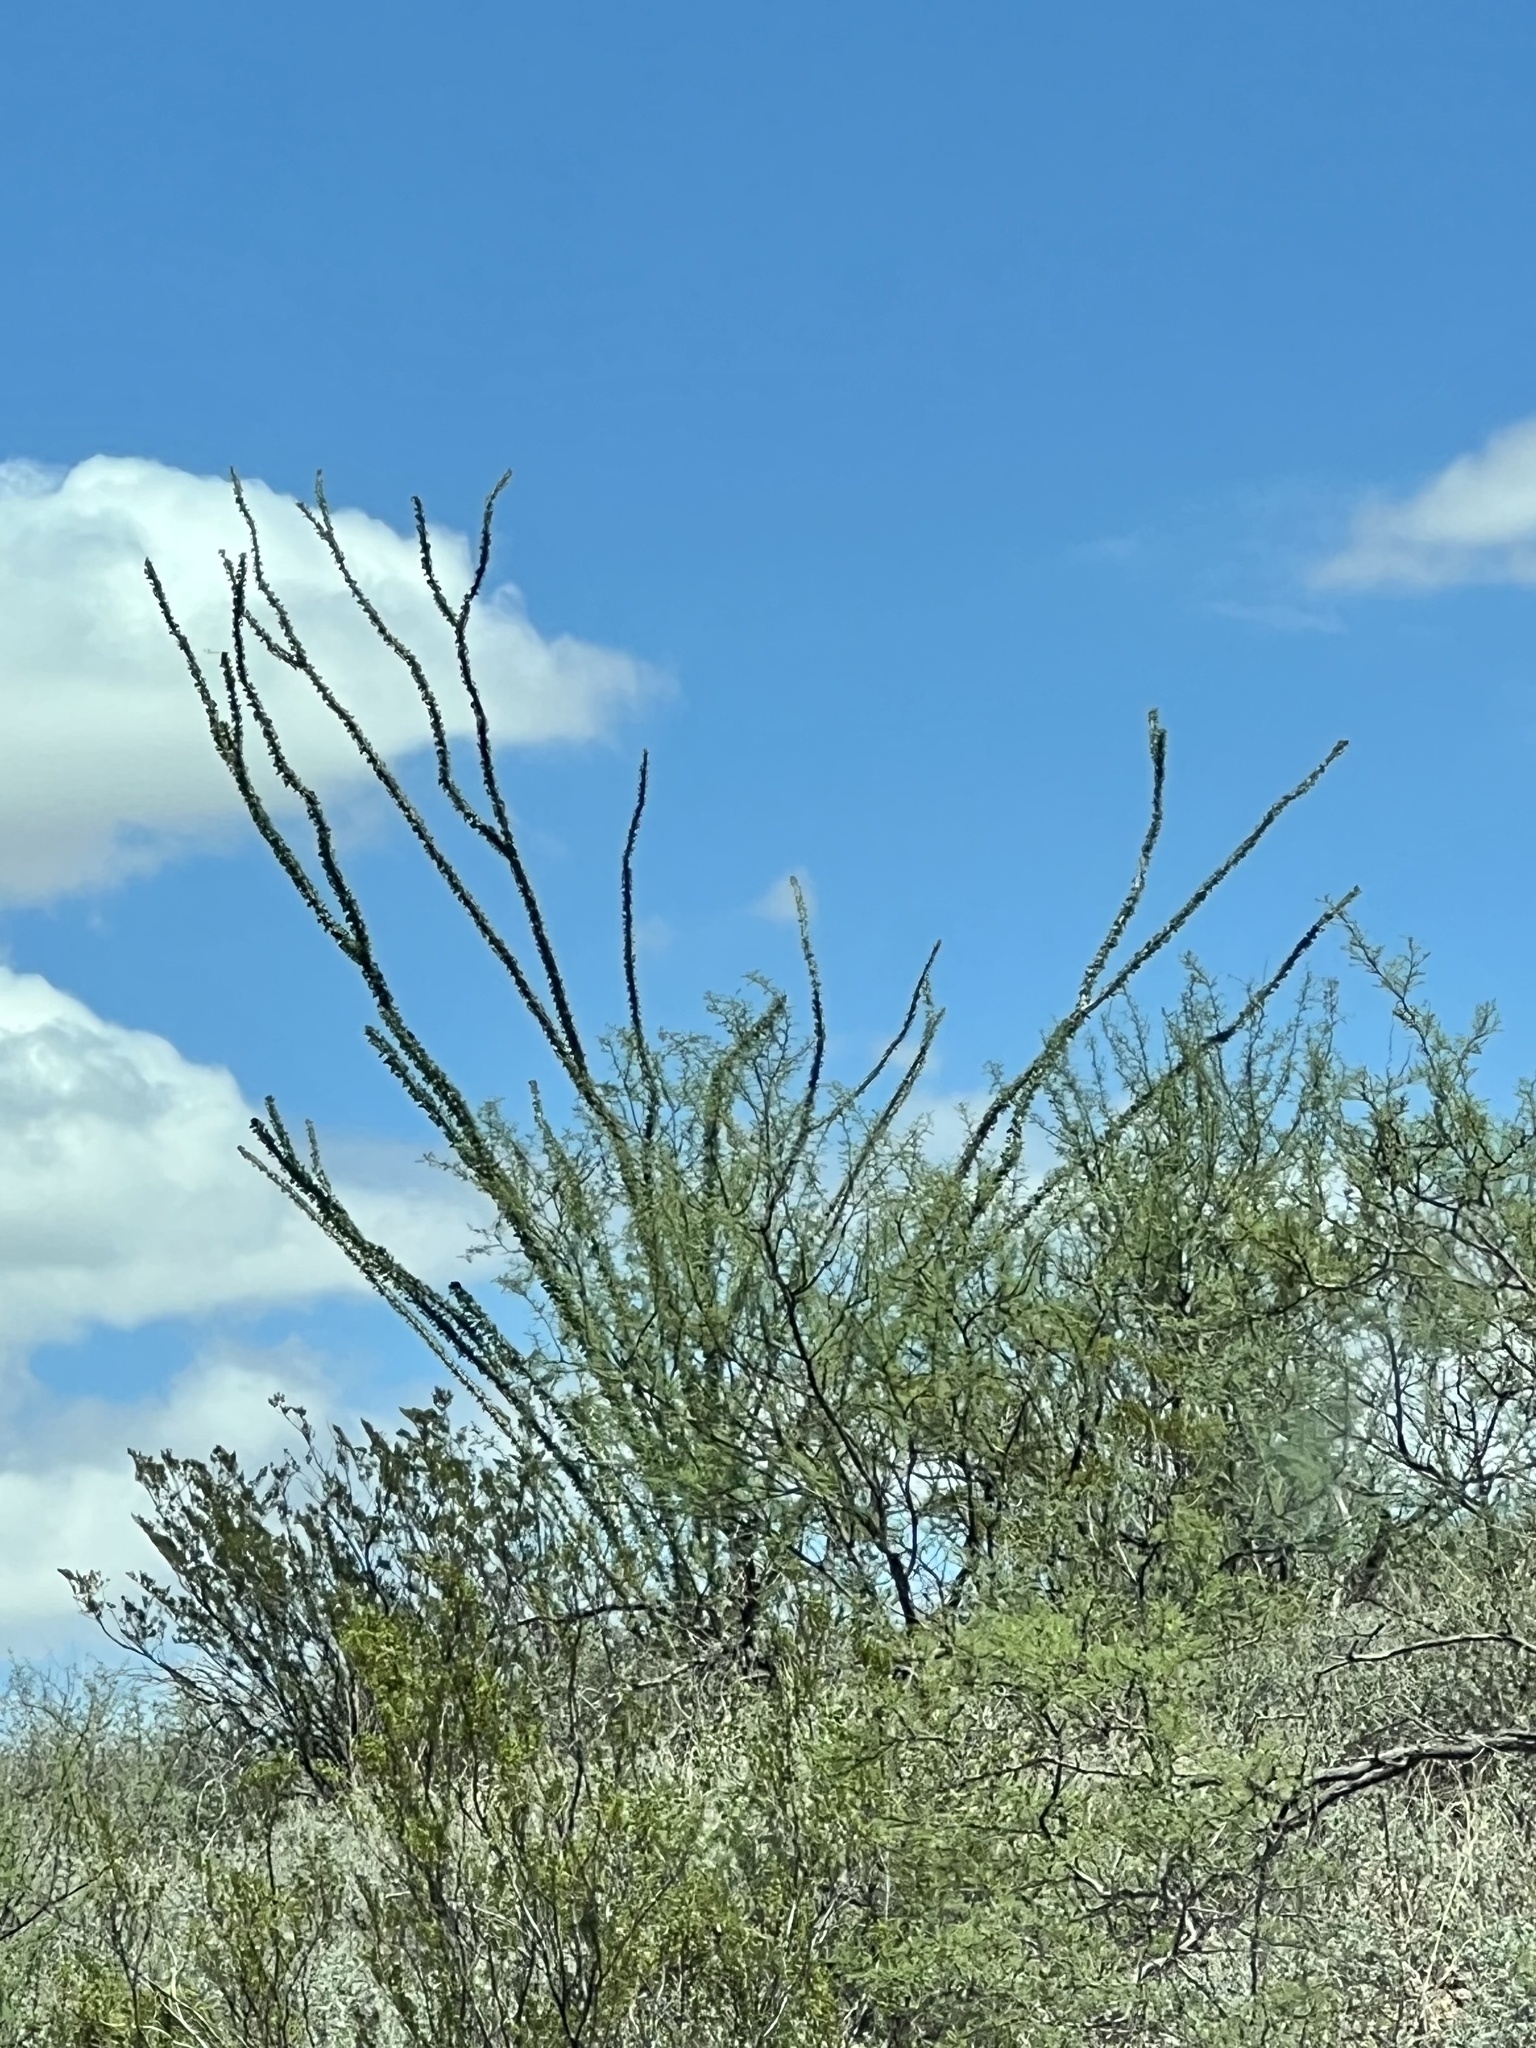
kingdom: Plantae
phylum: Tracheophyta
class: Magnoliopsida
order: Ericales
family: Fouquieriaceae
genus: Fouquieria
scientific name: Fouquieria splendens
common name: Vine-cactus
